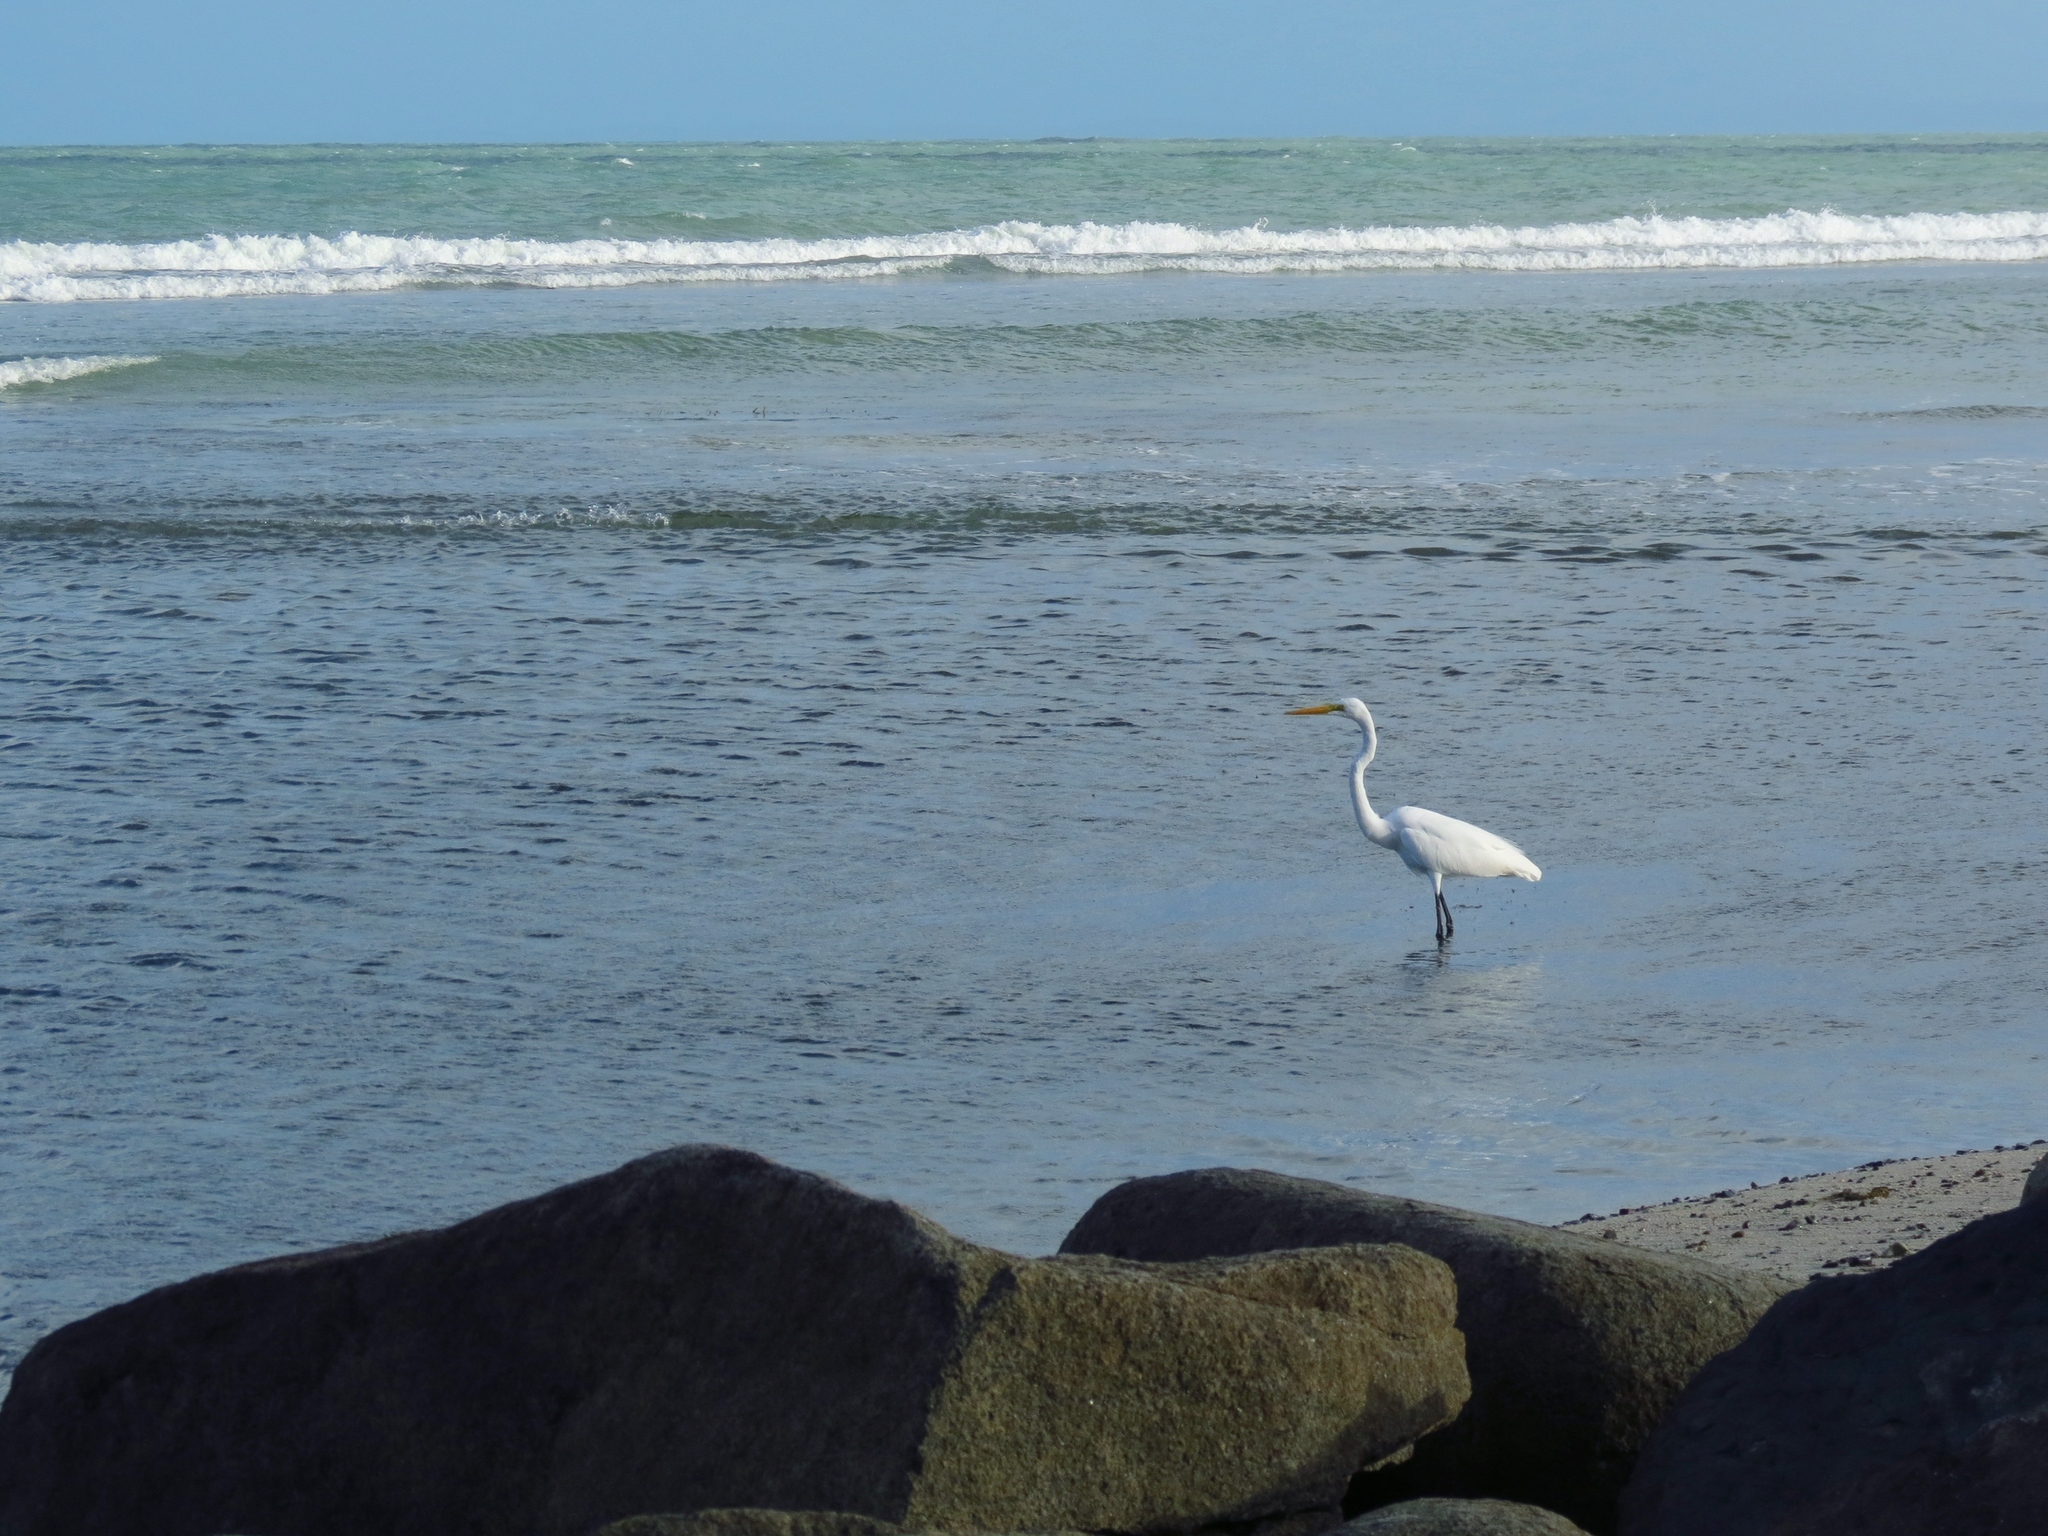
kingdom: Animalia
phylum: Chordata
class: Aves
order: Pelecaniformes
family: Ardeidae
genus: Ardea
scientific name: Ardea alba
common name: Great egret
